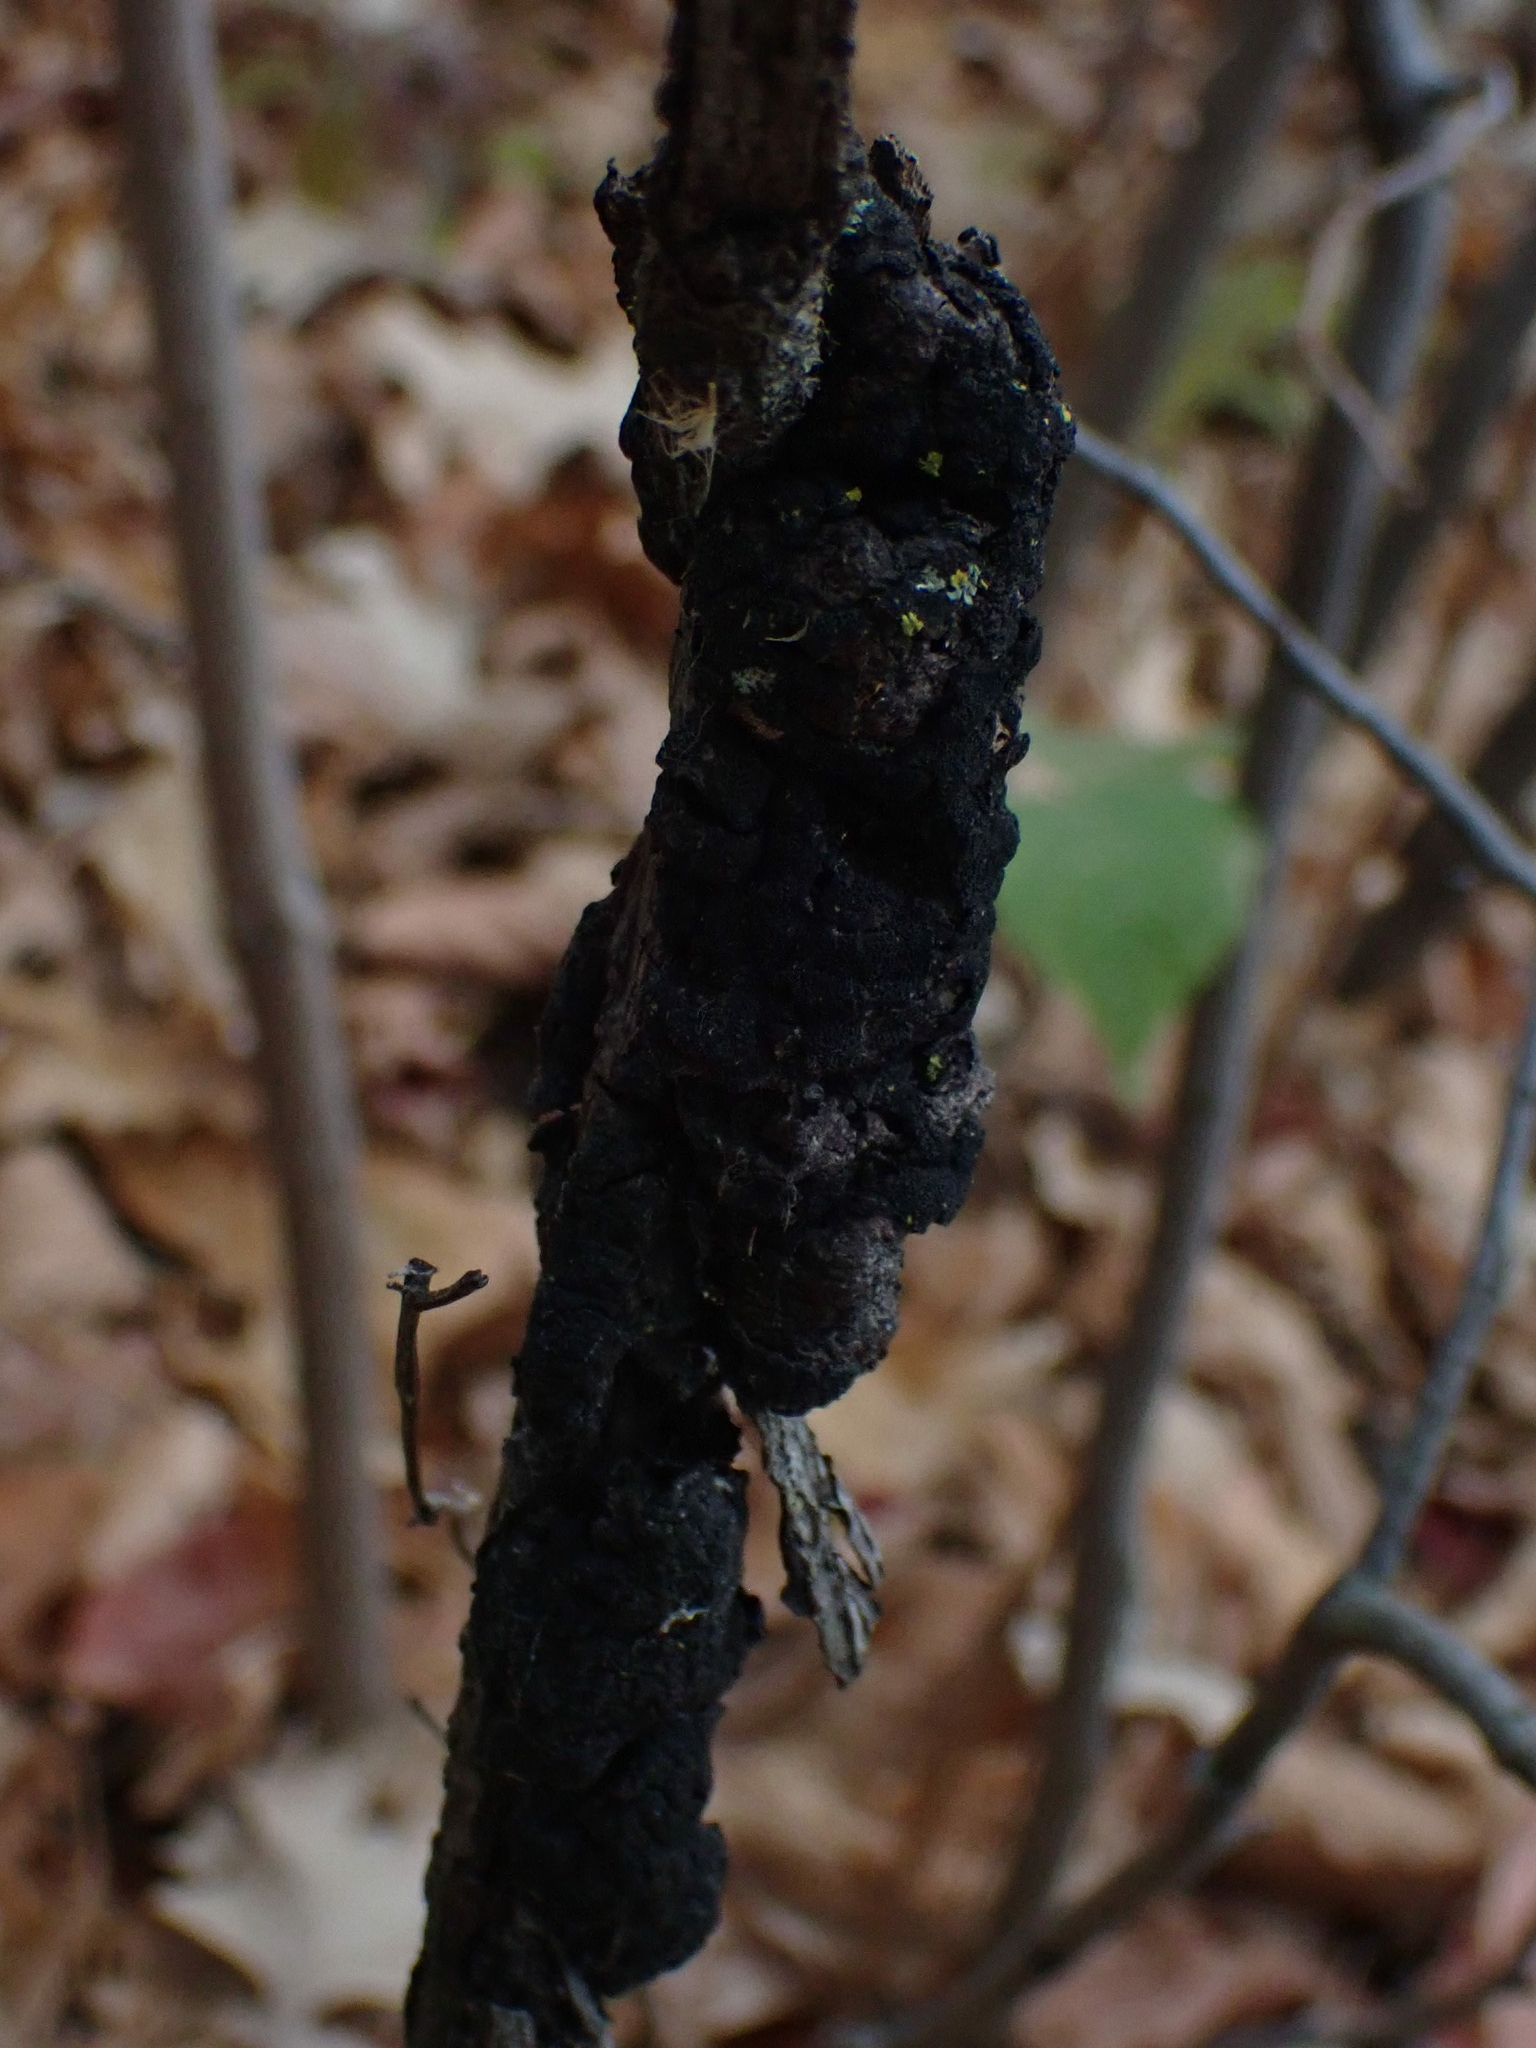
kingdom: Fungi
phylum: Ascomycota
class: Dothideomycetes
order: Venturiales
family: Venturiaceae
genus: Apiosporina
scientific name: Apiosporina morbosa
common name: Black knot
